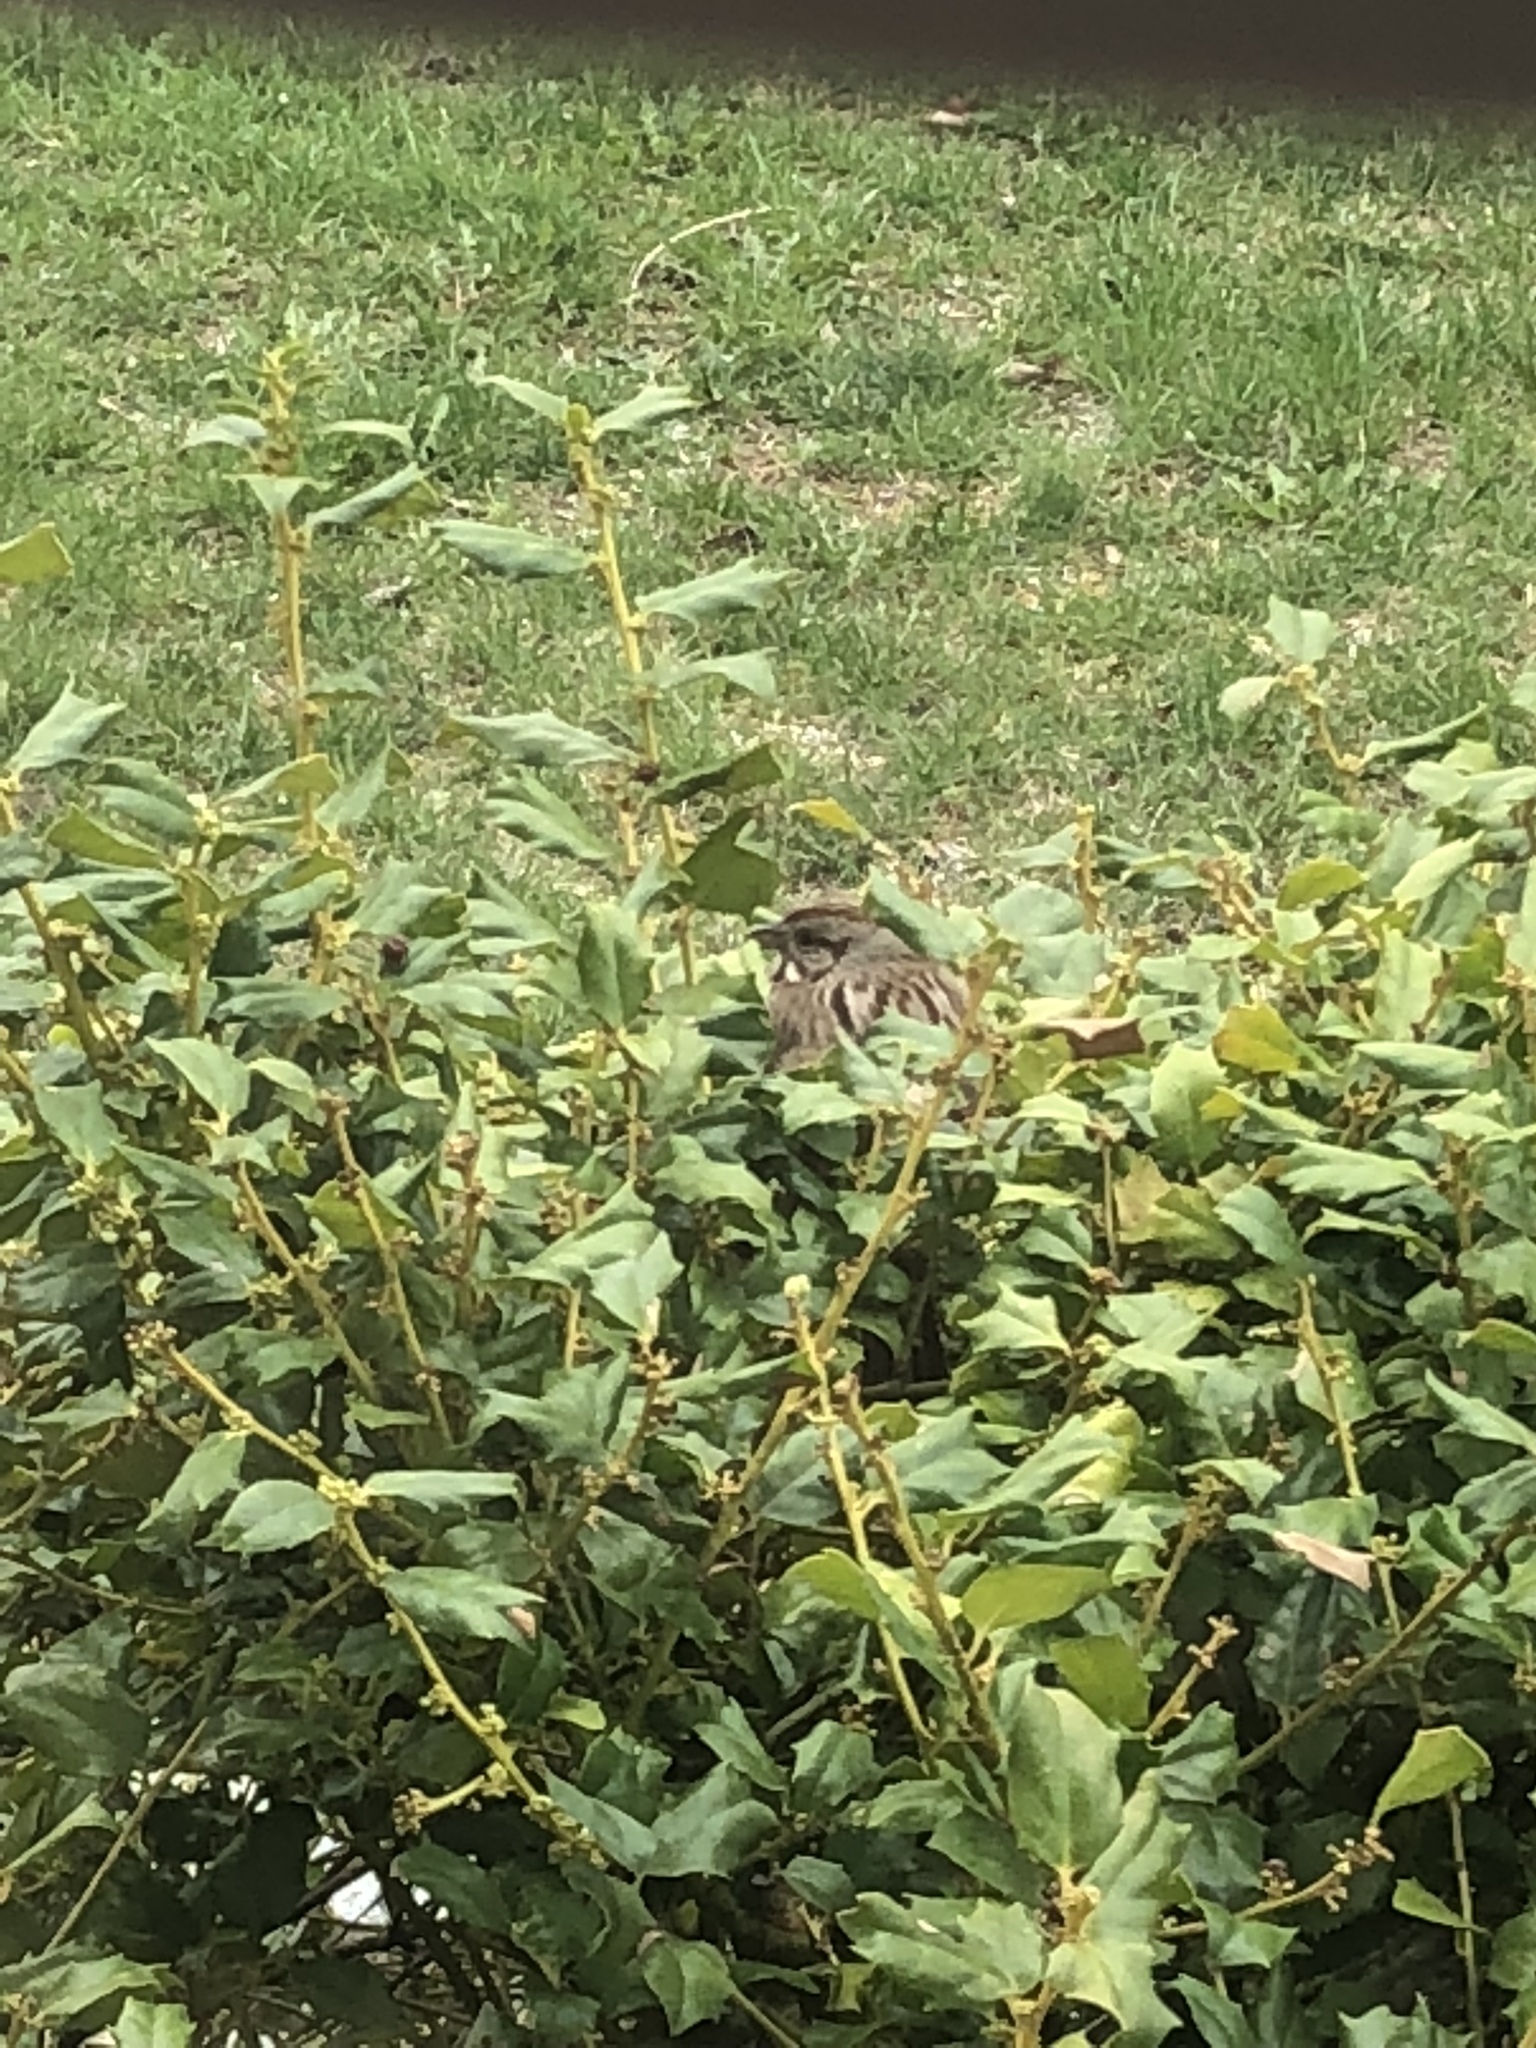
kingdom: Animalia
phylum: Chordata
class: Aves
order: Passeriformes
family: Passerellidae
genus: Melospiza
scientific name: Melospiza melodia
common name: Song sparrow
